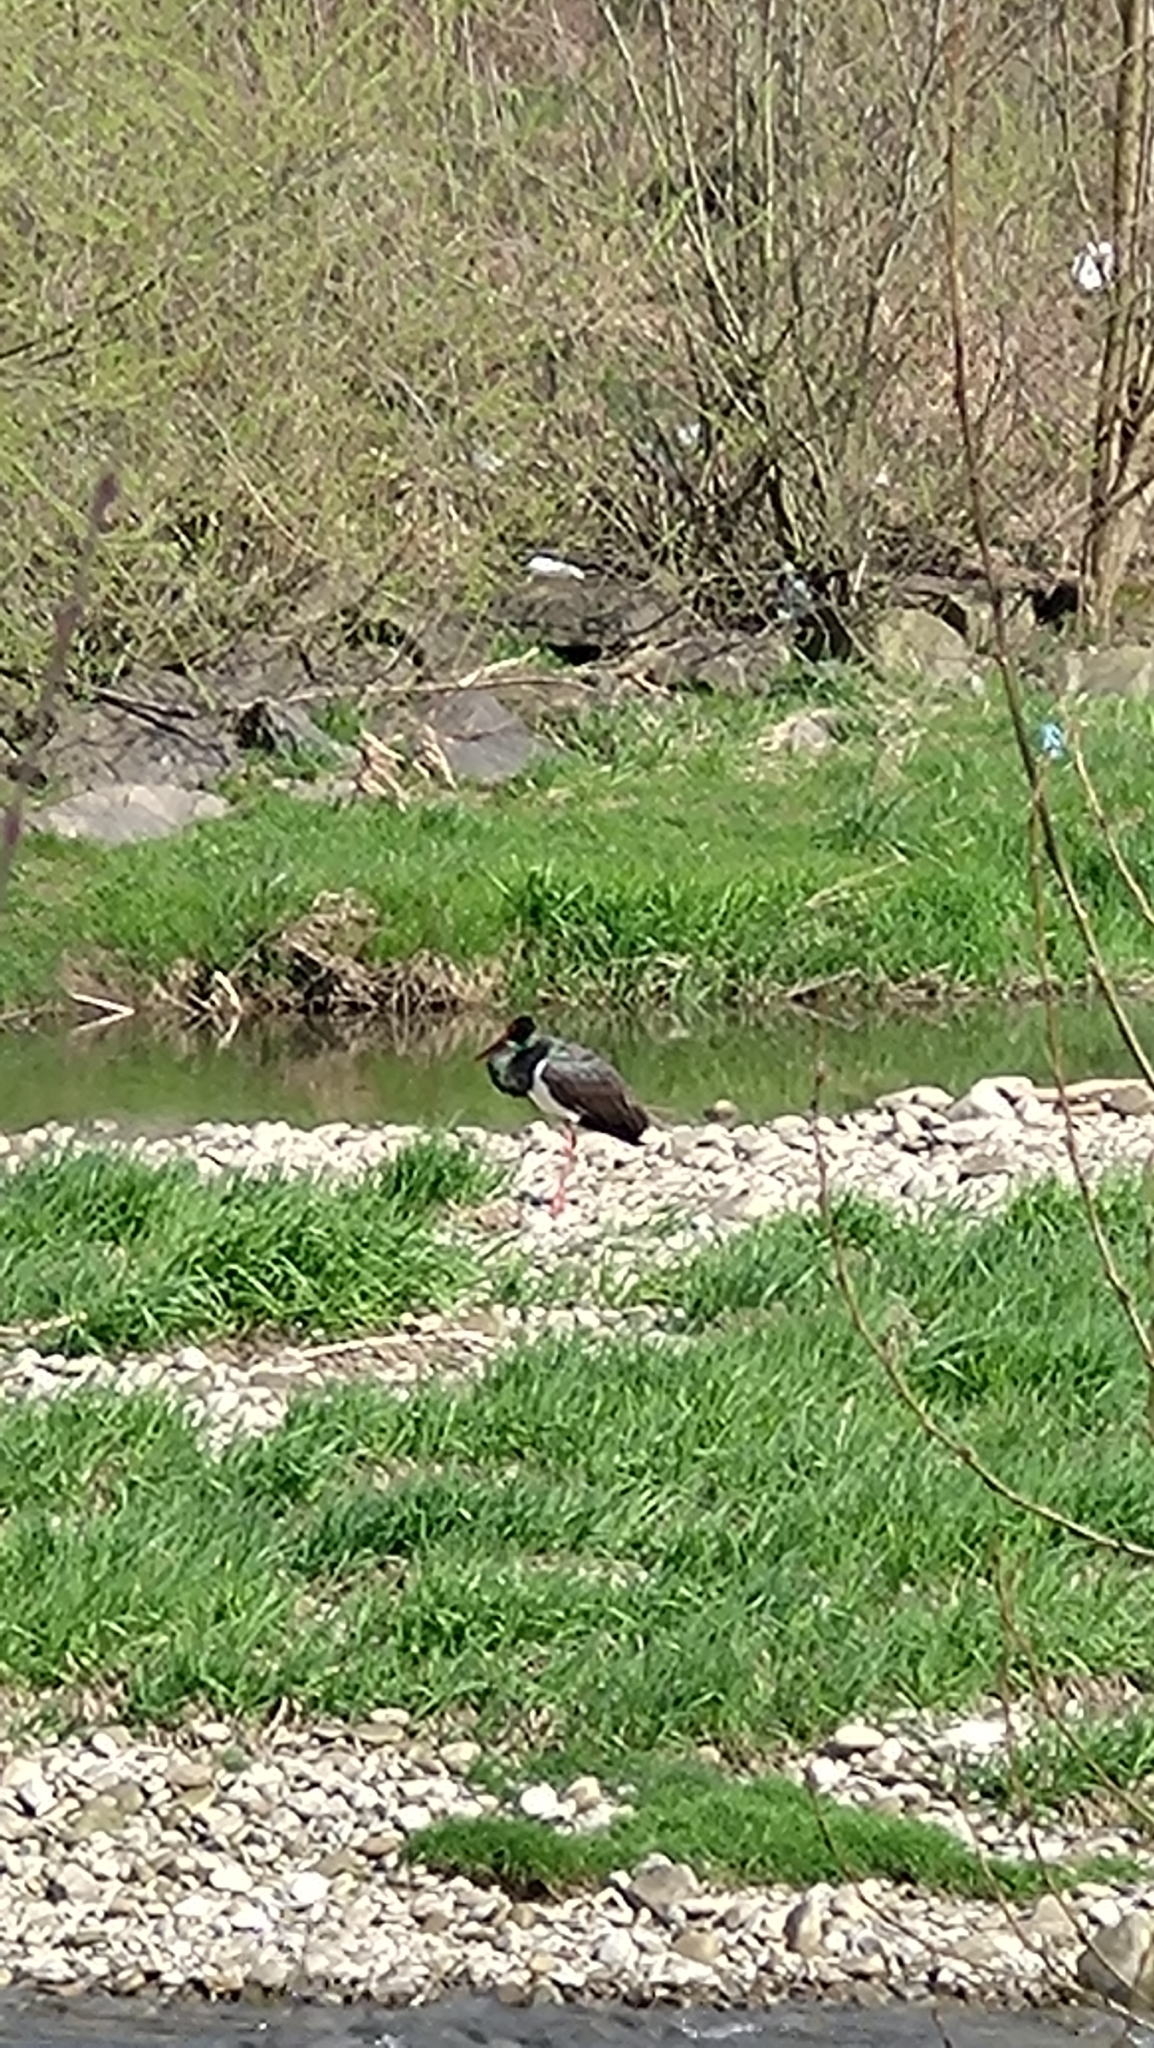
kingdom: Animalia
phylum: Chordata
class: Aves
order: Ciconiiformes
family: Ciconiidae
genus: Ciconia
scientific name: Ciconia nigra
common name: Black stork
